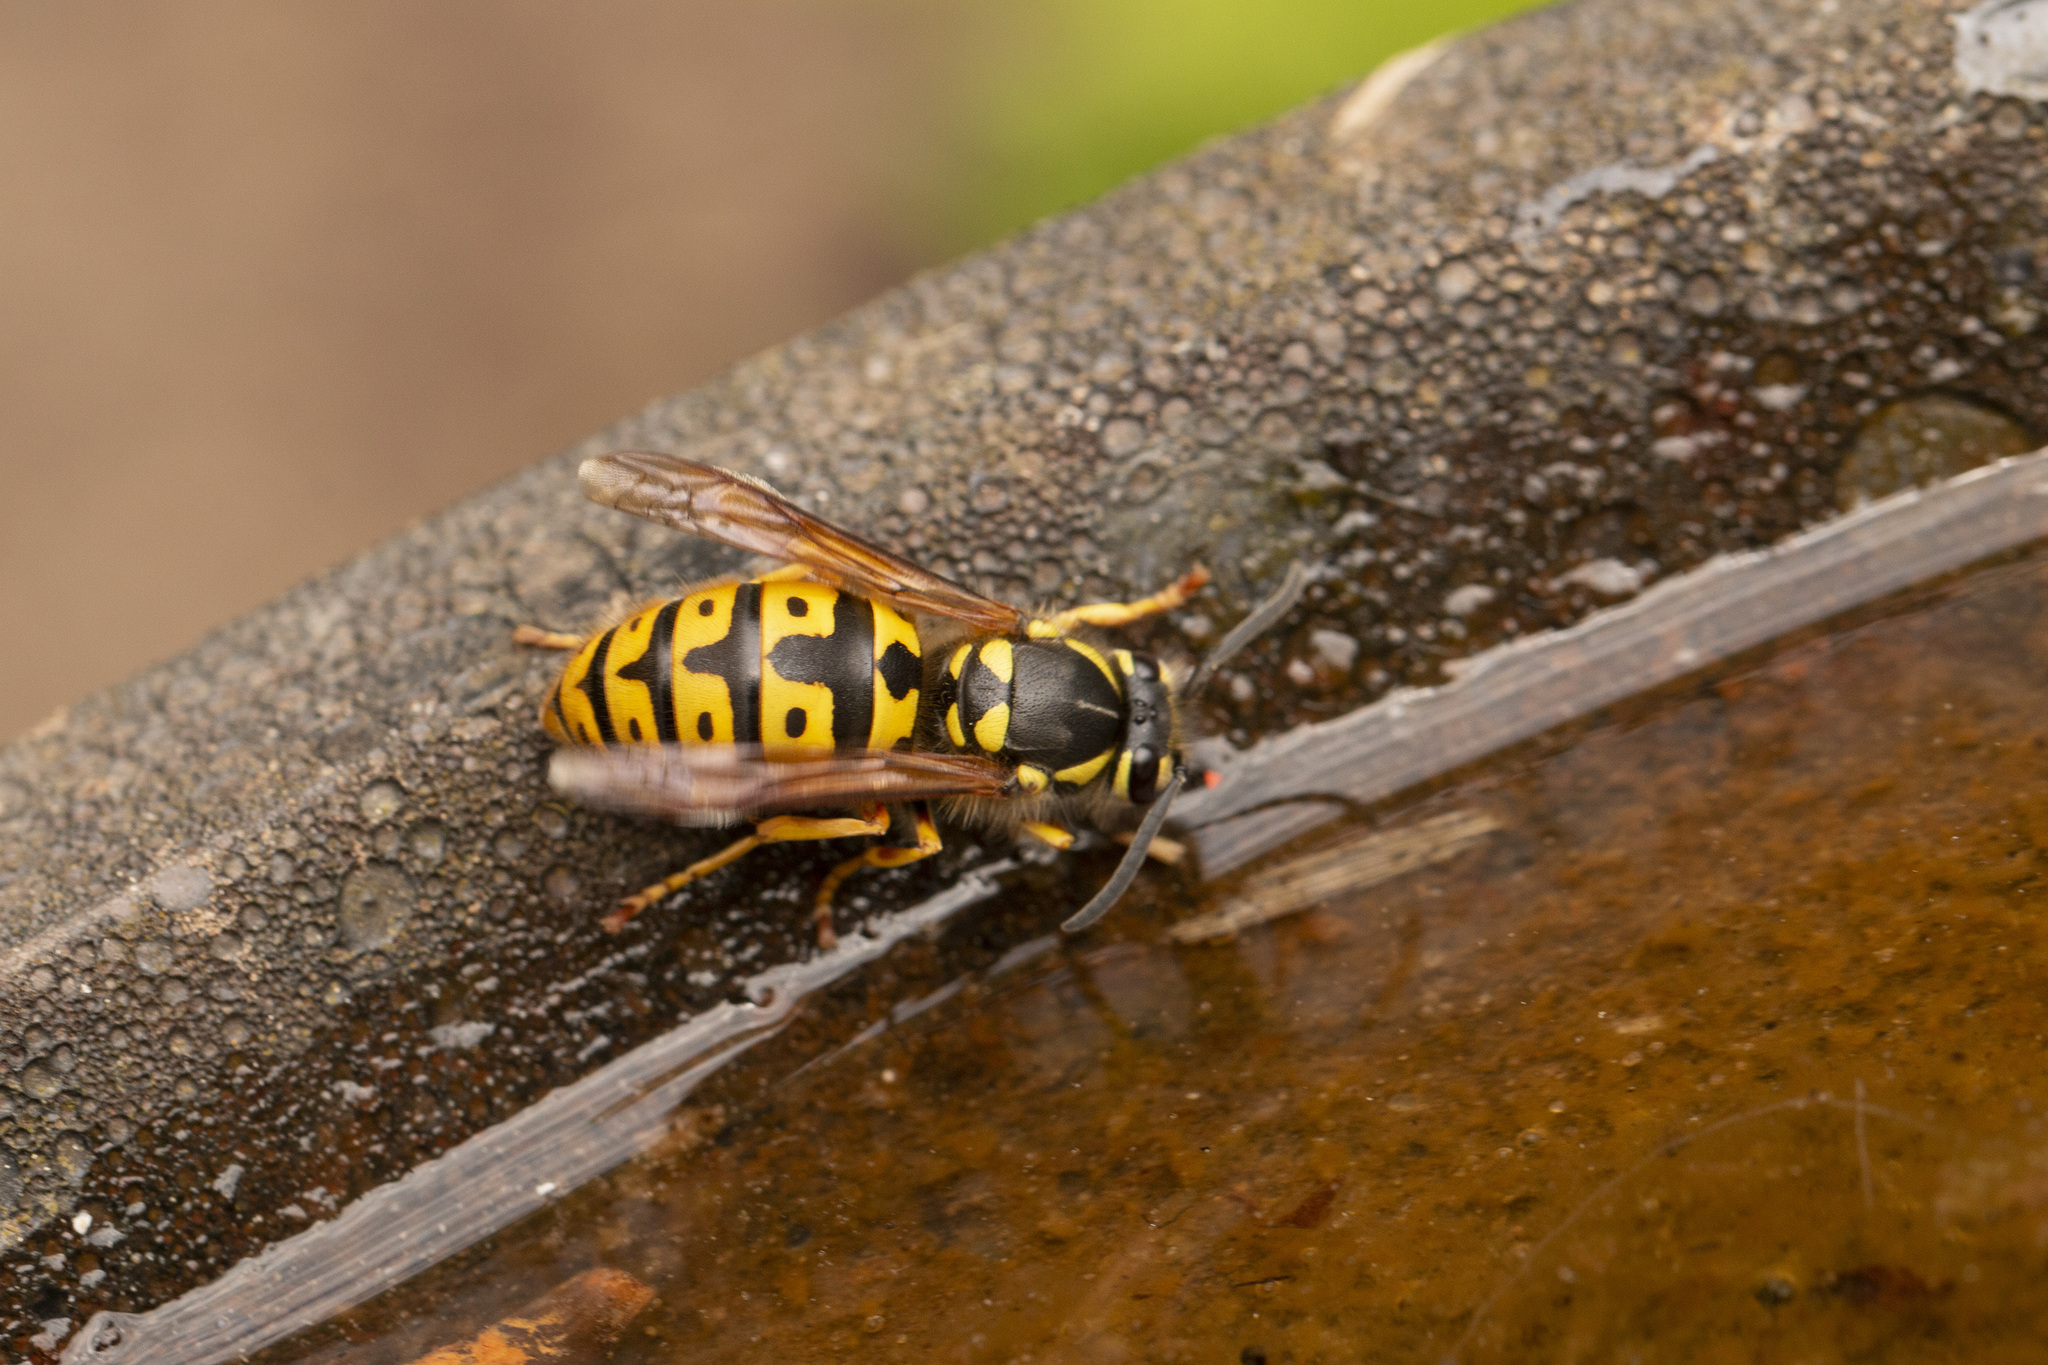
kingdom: Animalia
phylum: Arthropoda
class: Insecta
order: Hymenoptera
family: Vespidae
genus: Vespula
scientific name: Vespula germanica
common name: German wasp
